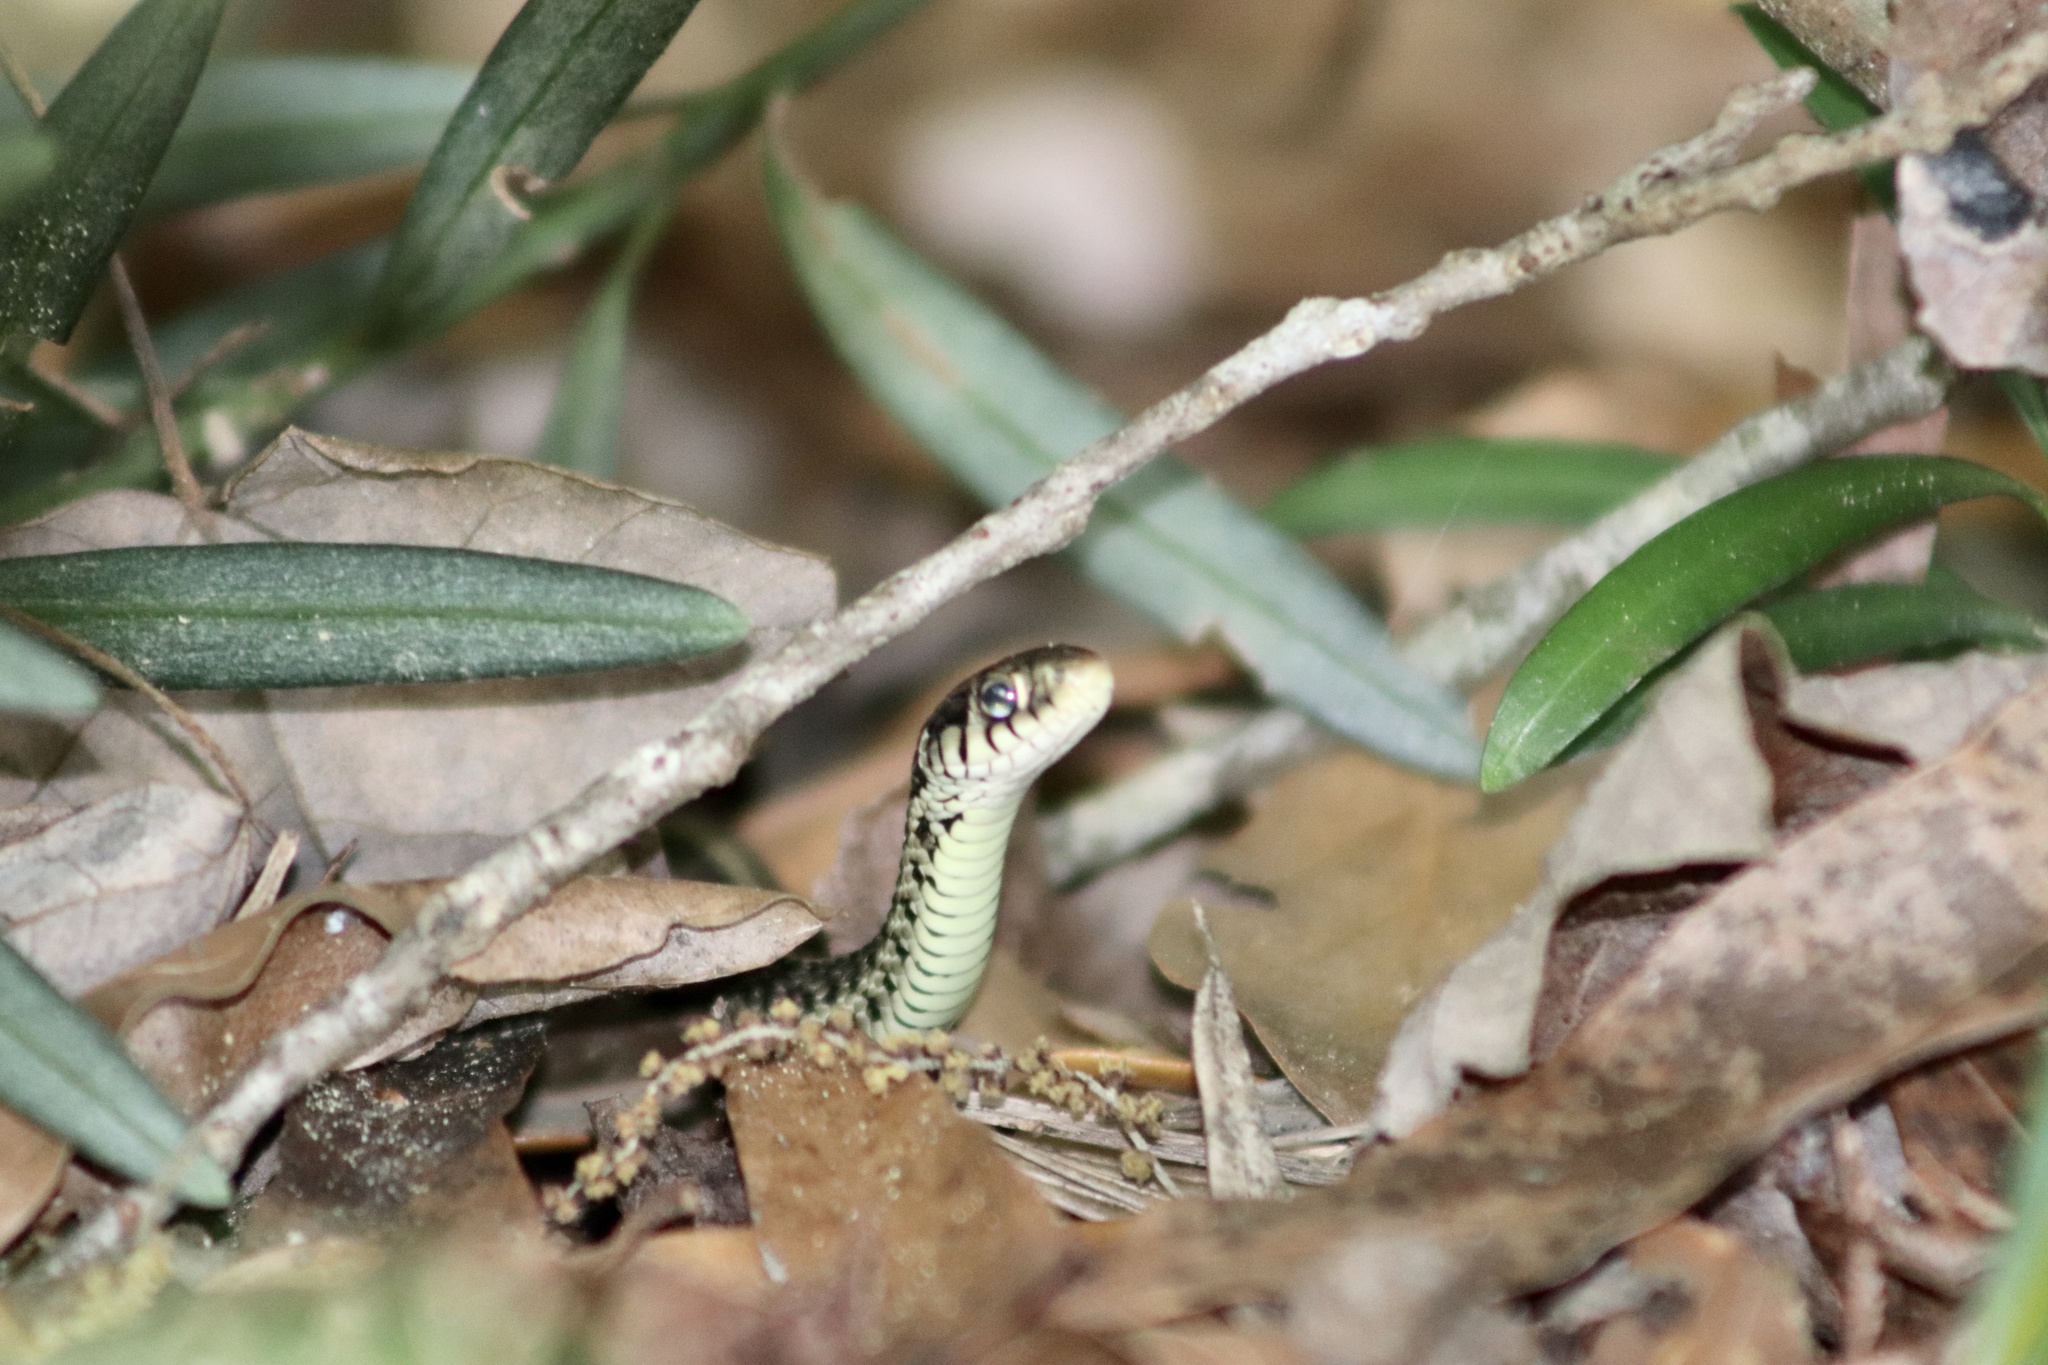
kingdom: Animalia
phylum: Chordata
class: Squamata
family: Colubridae
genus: Thamnophis
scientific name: Thamnophis sirtalis
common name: Common garter snake
